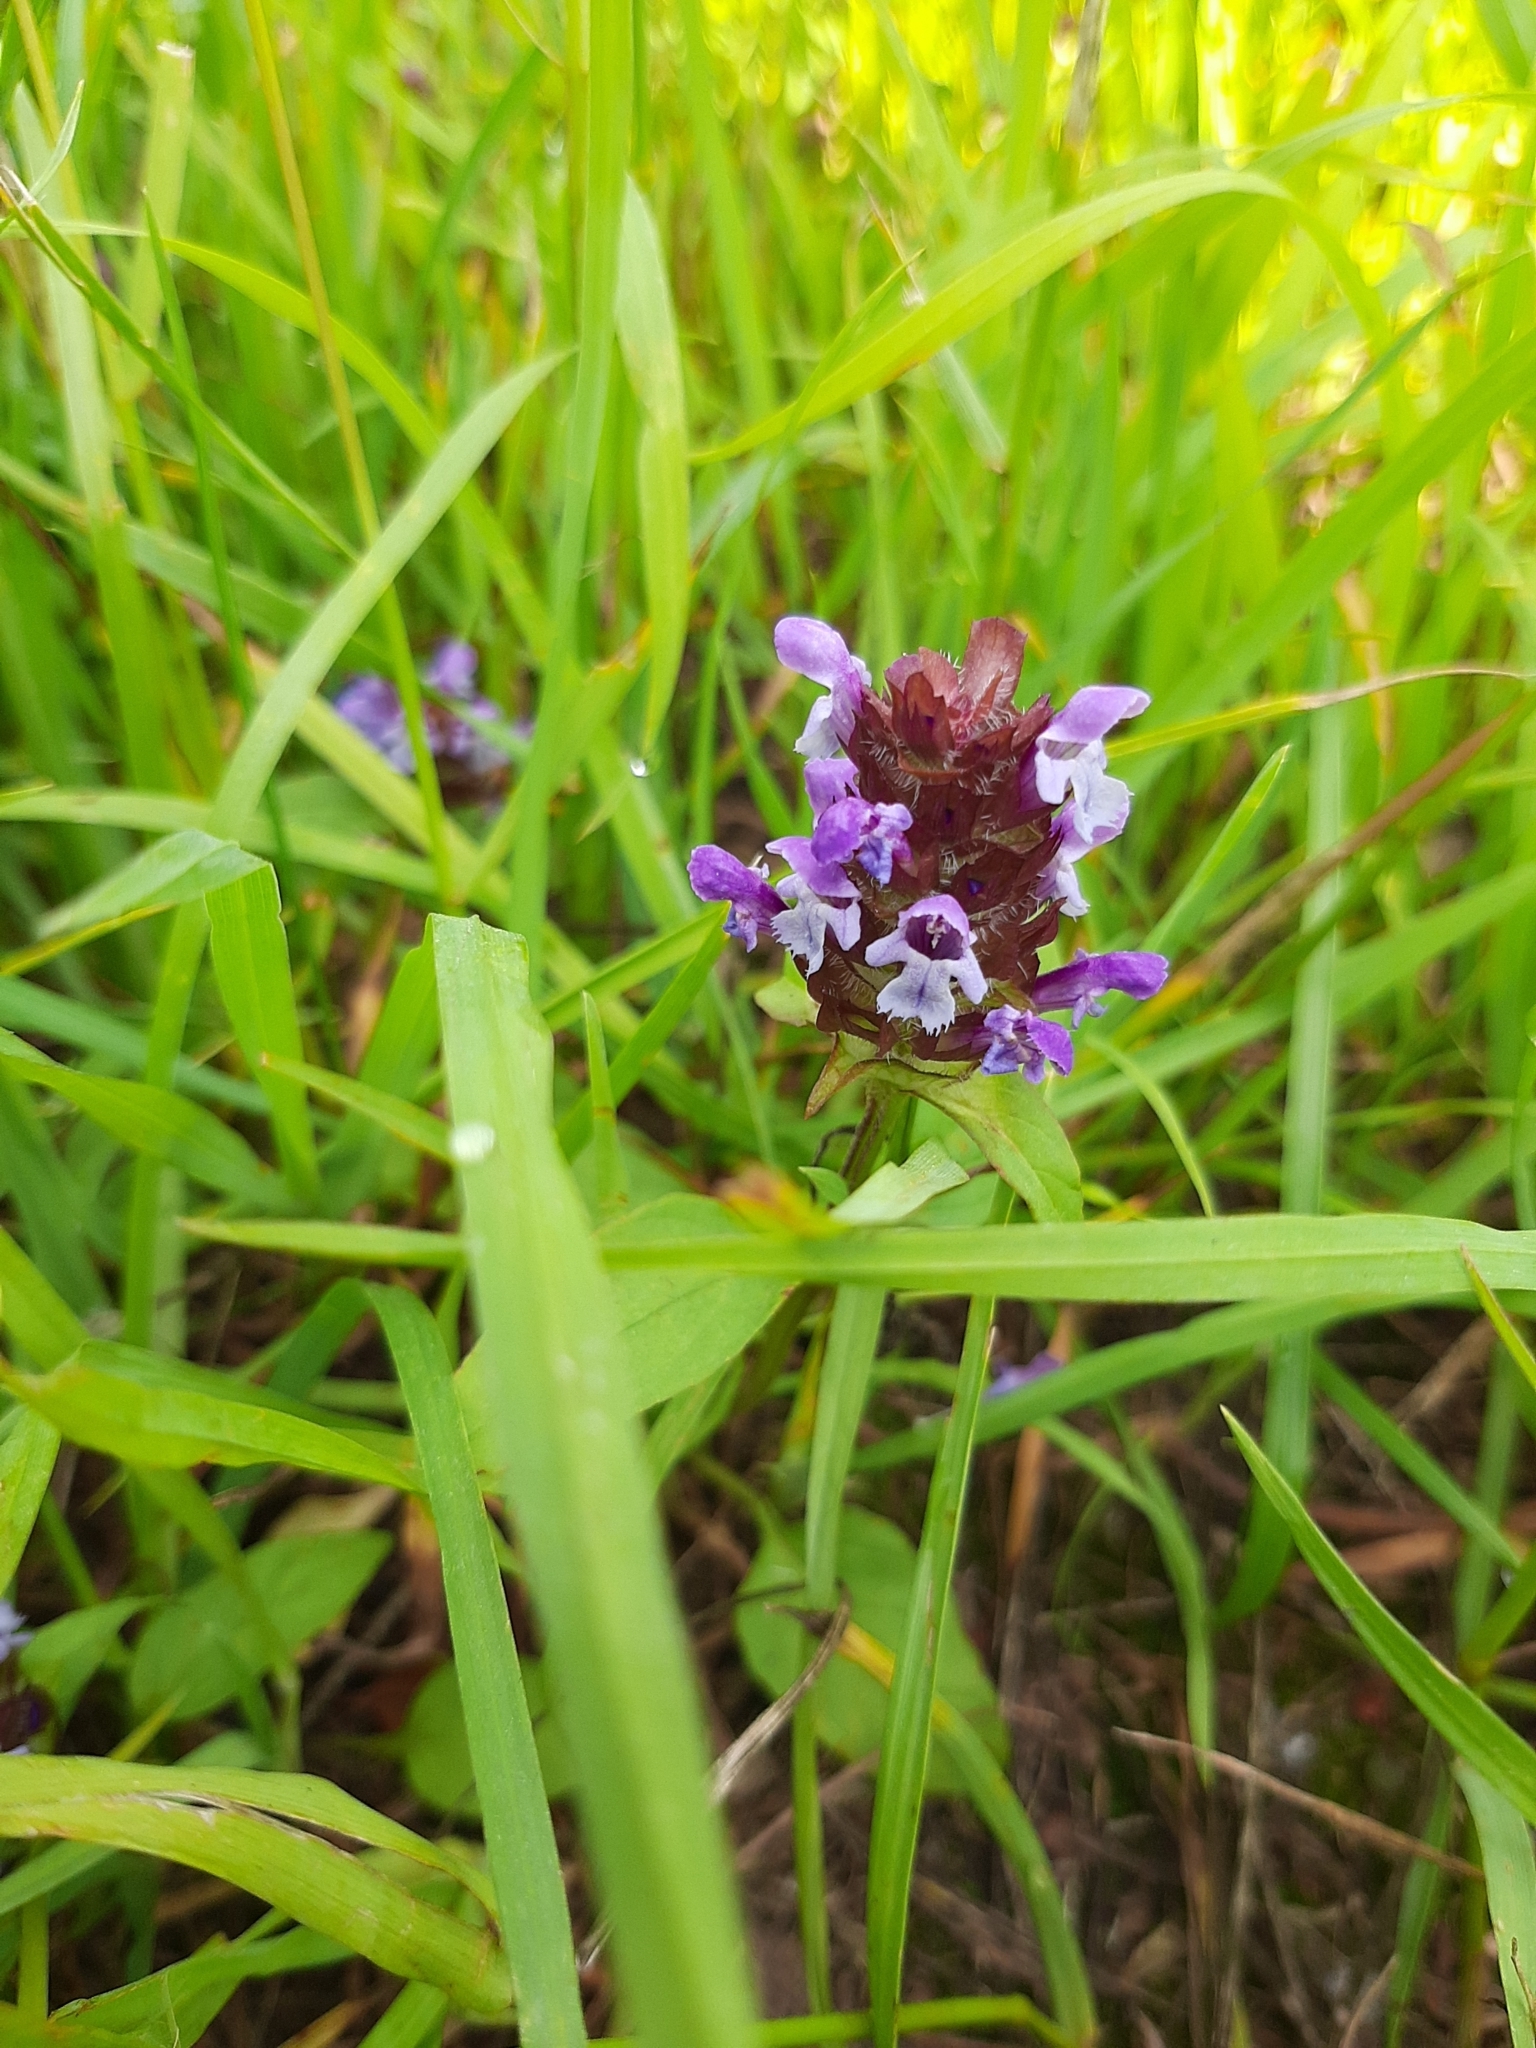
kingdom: Plantae
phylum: Tracheophyta
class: Magnoliopsida
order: Lamiales
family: Lamiaceae
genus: Prunella
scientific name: Prunella vulgaris
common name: Heal-all
